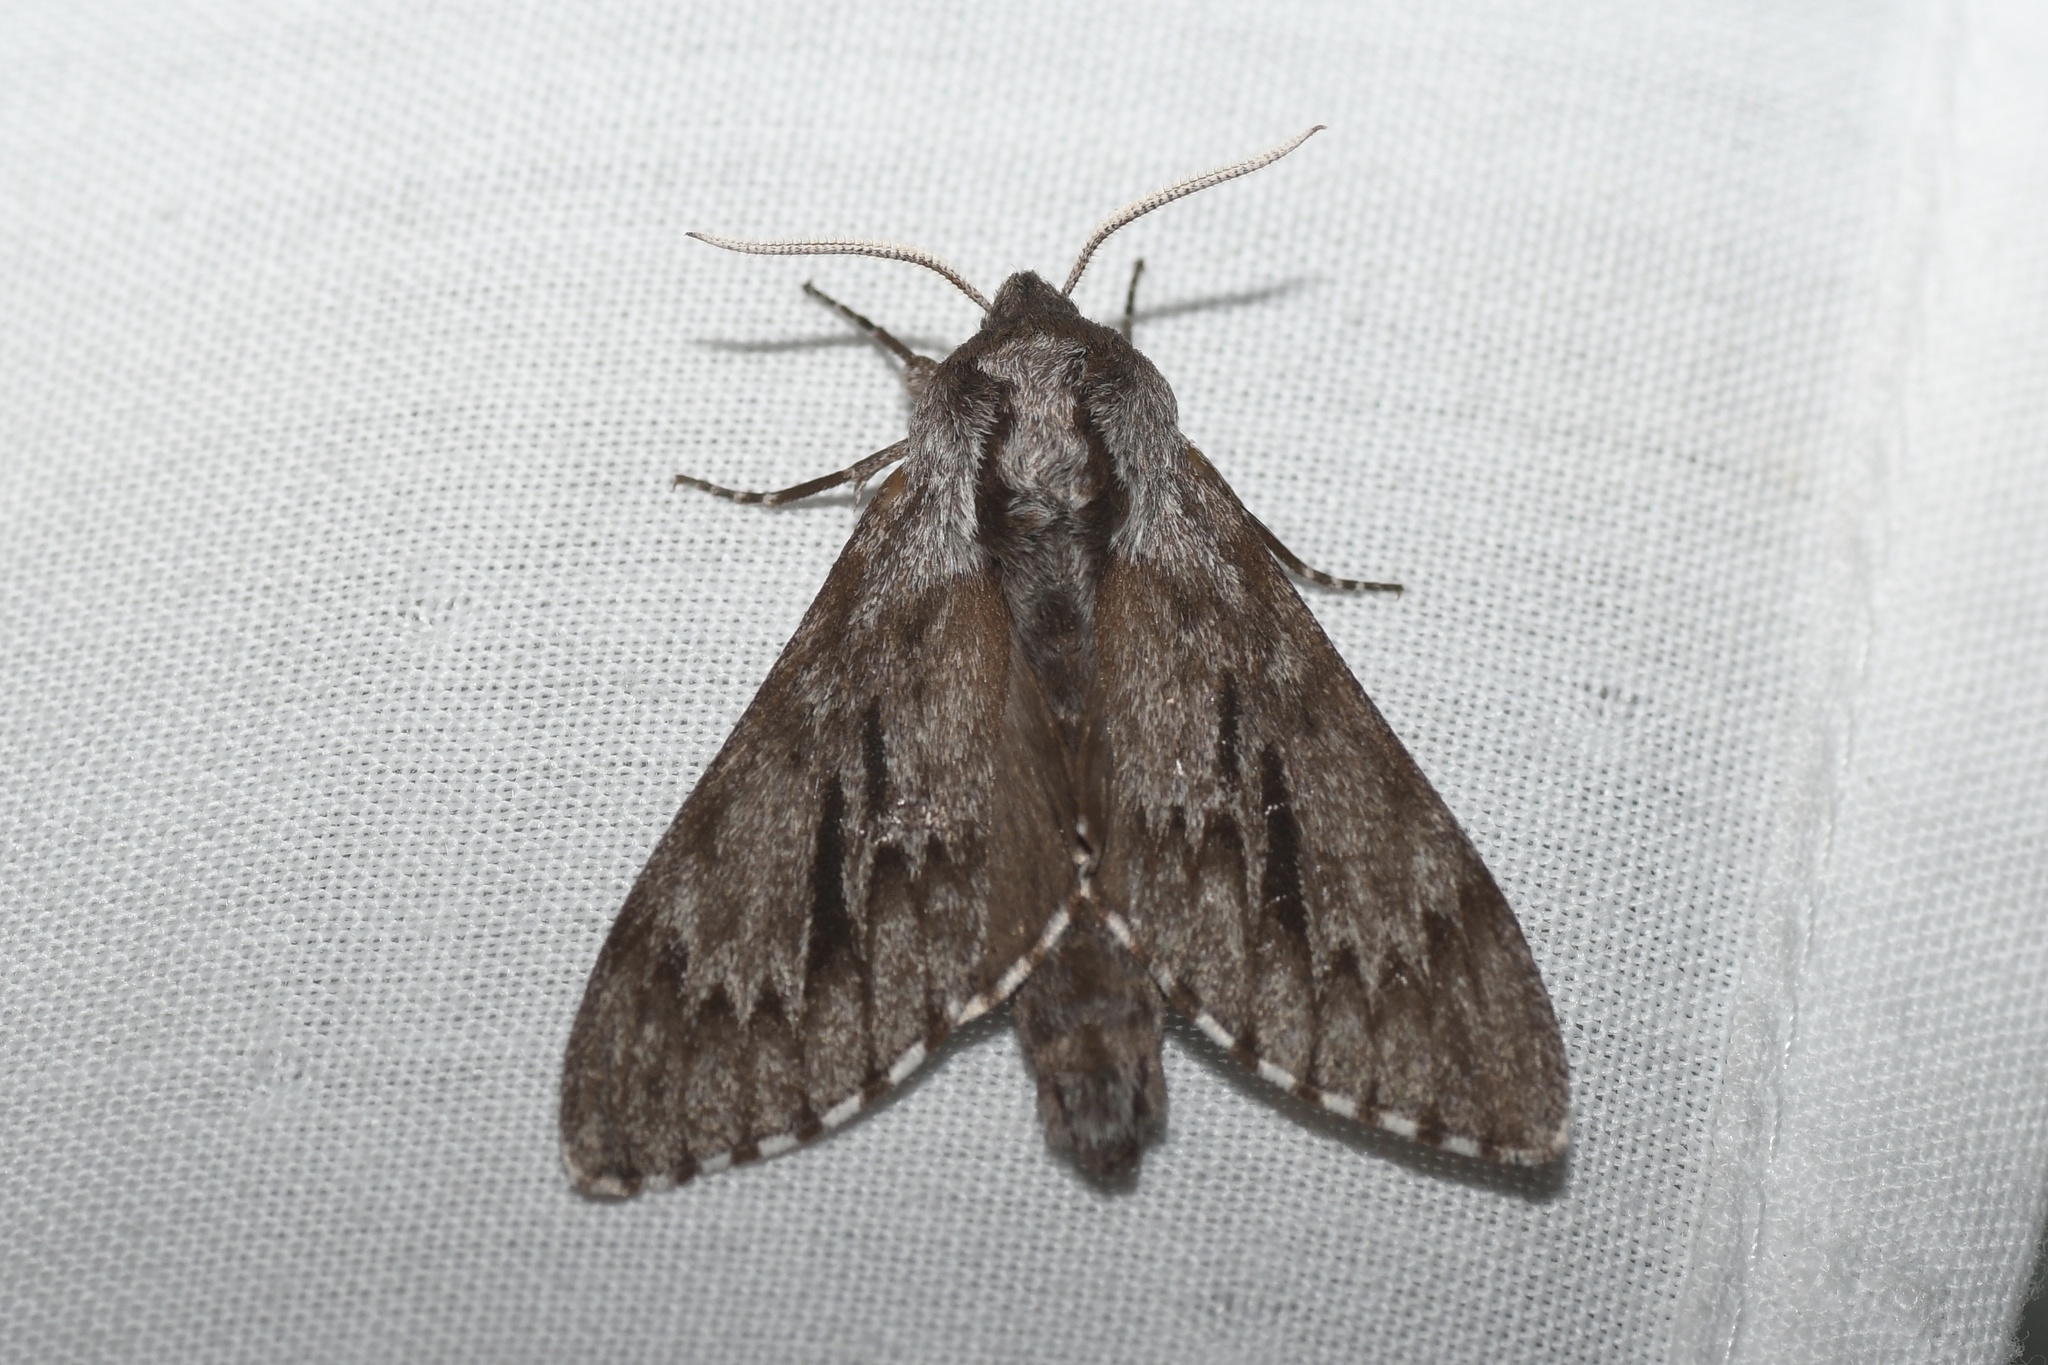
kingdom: Animalia
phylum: Arthropoda
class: Insecta
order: Lepidoptera
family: Sphingidae
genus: Lapara
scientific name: Lapara bombycoides
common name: Northern pine sphinx
